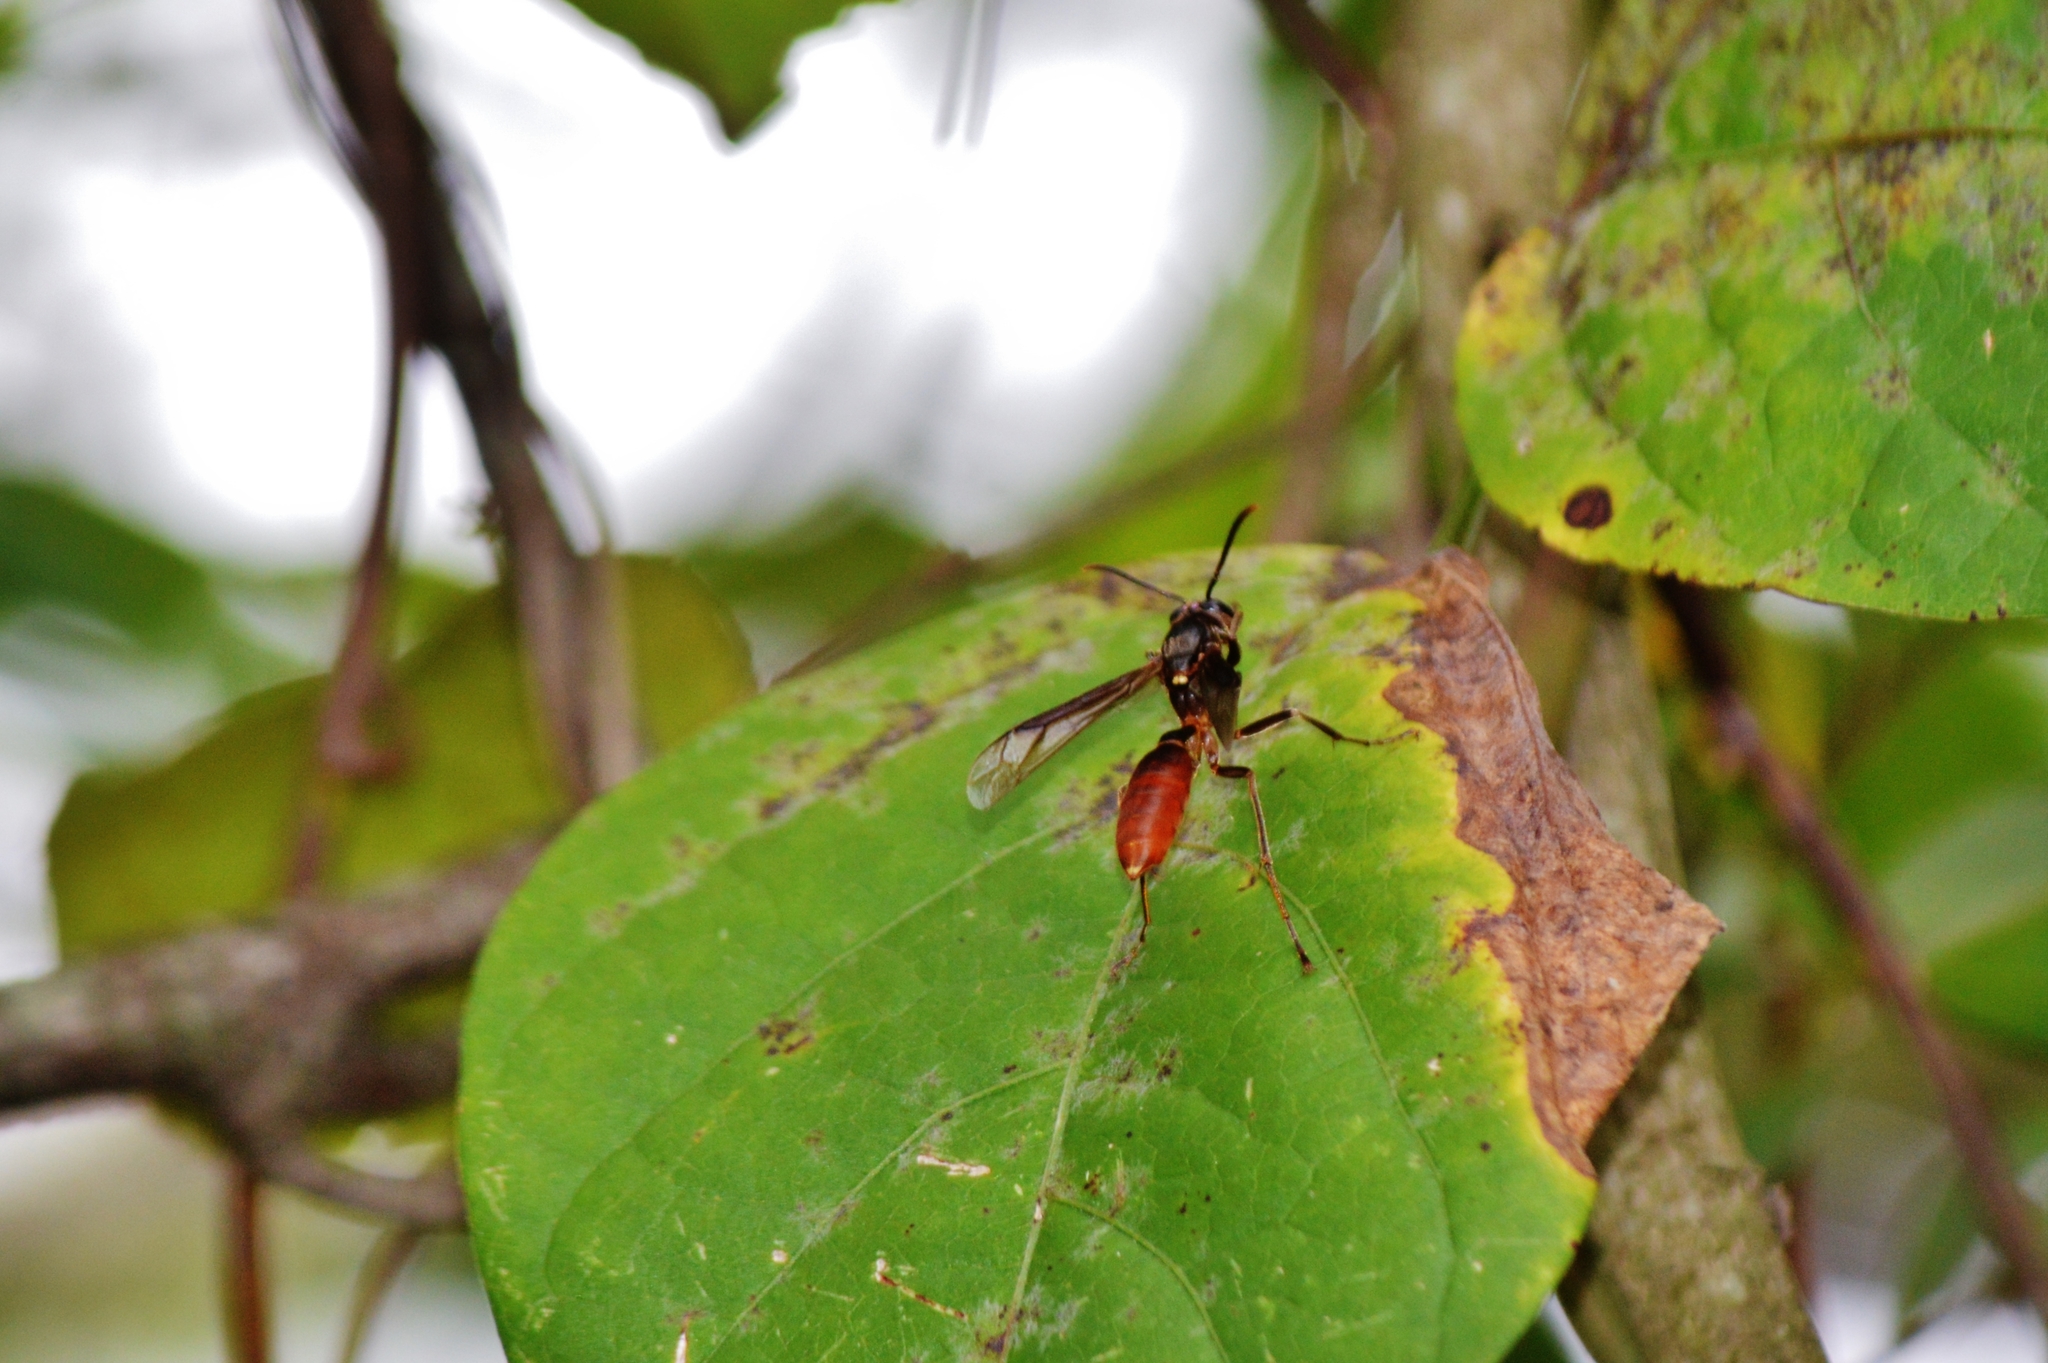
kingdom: Animalia
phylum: Arthropoda
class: Insecta
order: Hymenoptera
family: Vespidae
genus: Apoica
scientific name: Apoica pallida
